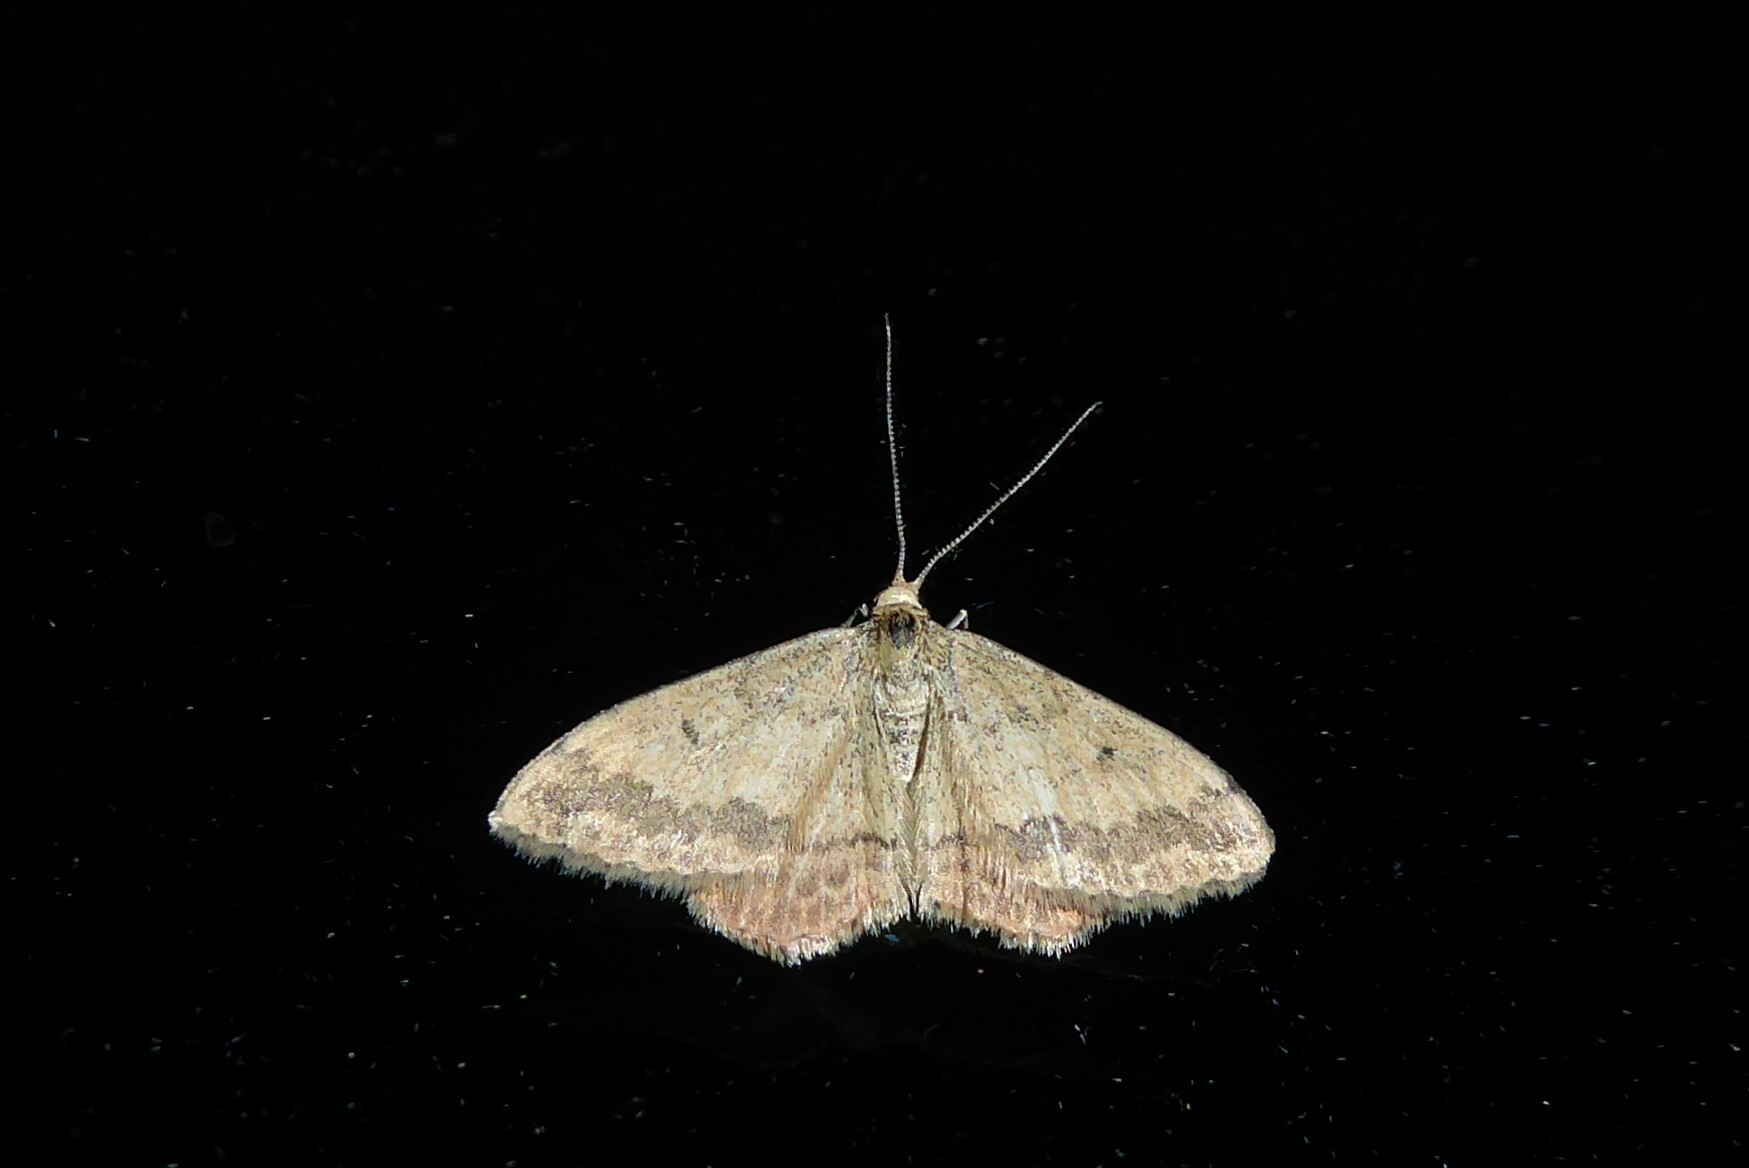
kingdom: Animalia
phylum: Arthropoda
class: Insecta
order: Lepidoptera
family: Geometridae
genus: Scopula
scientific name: Scopula rubraria
